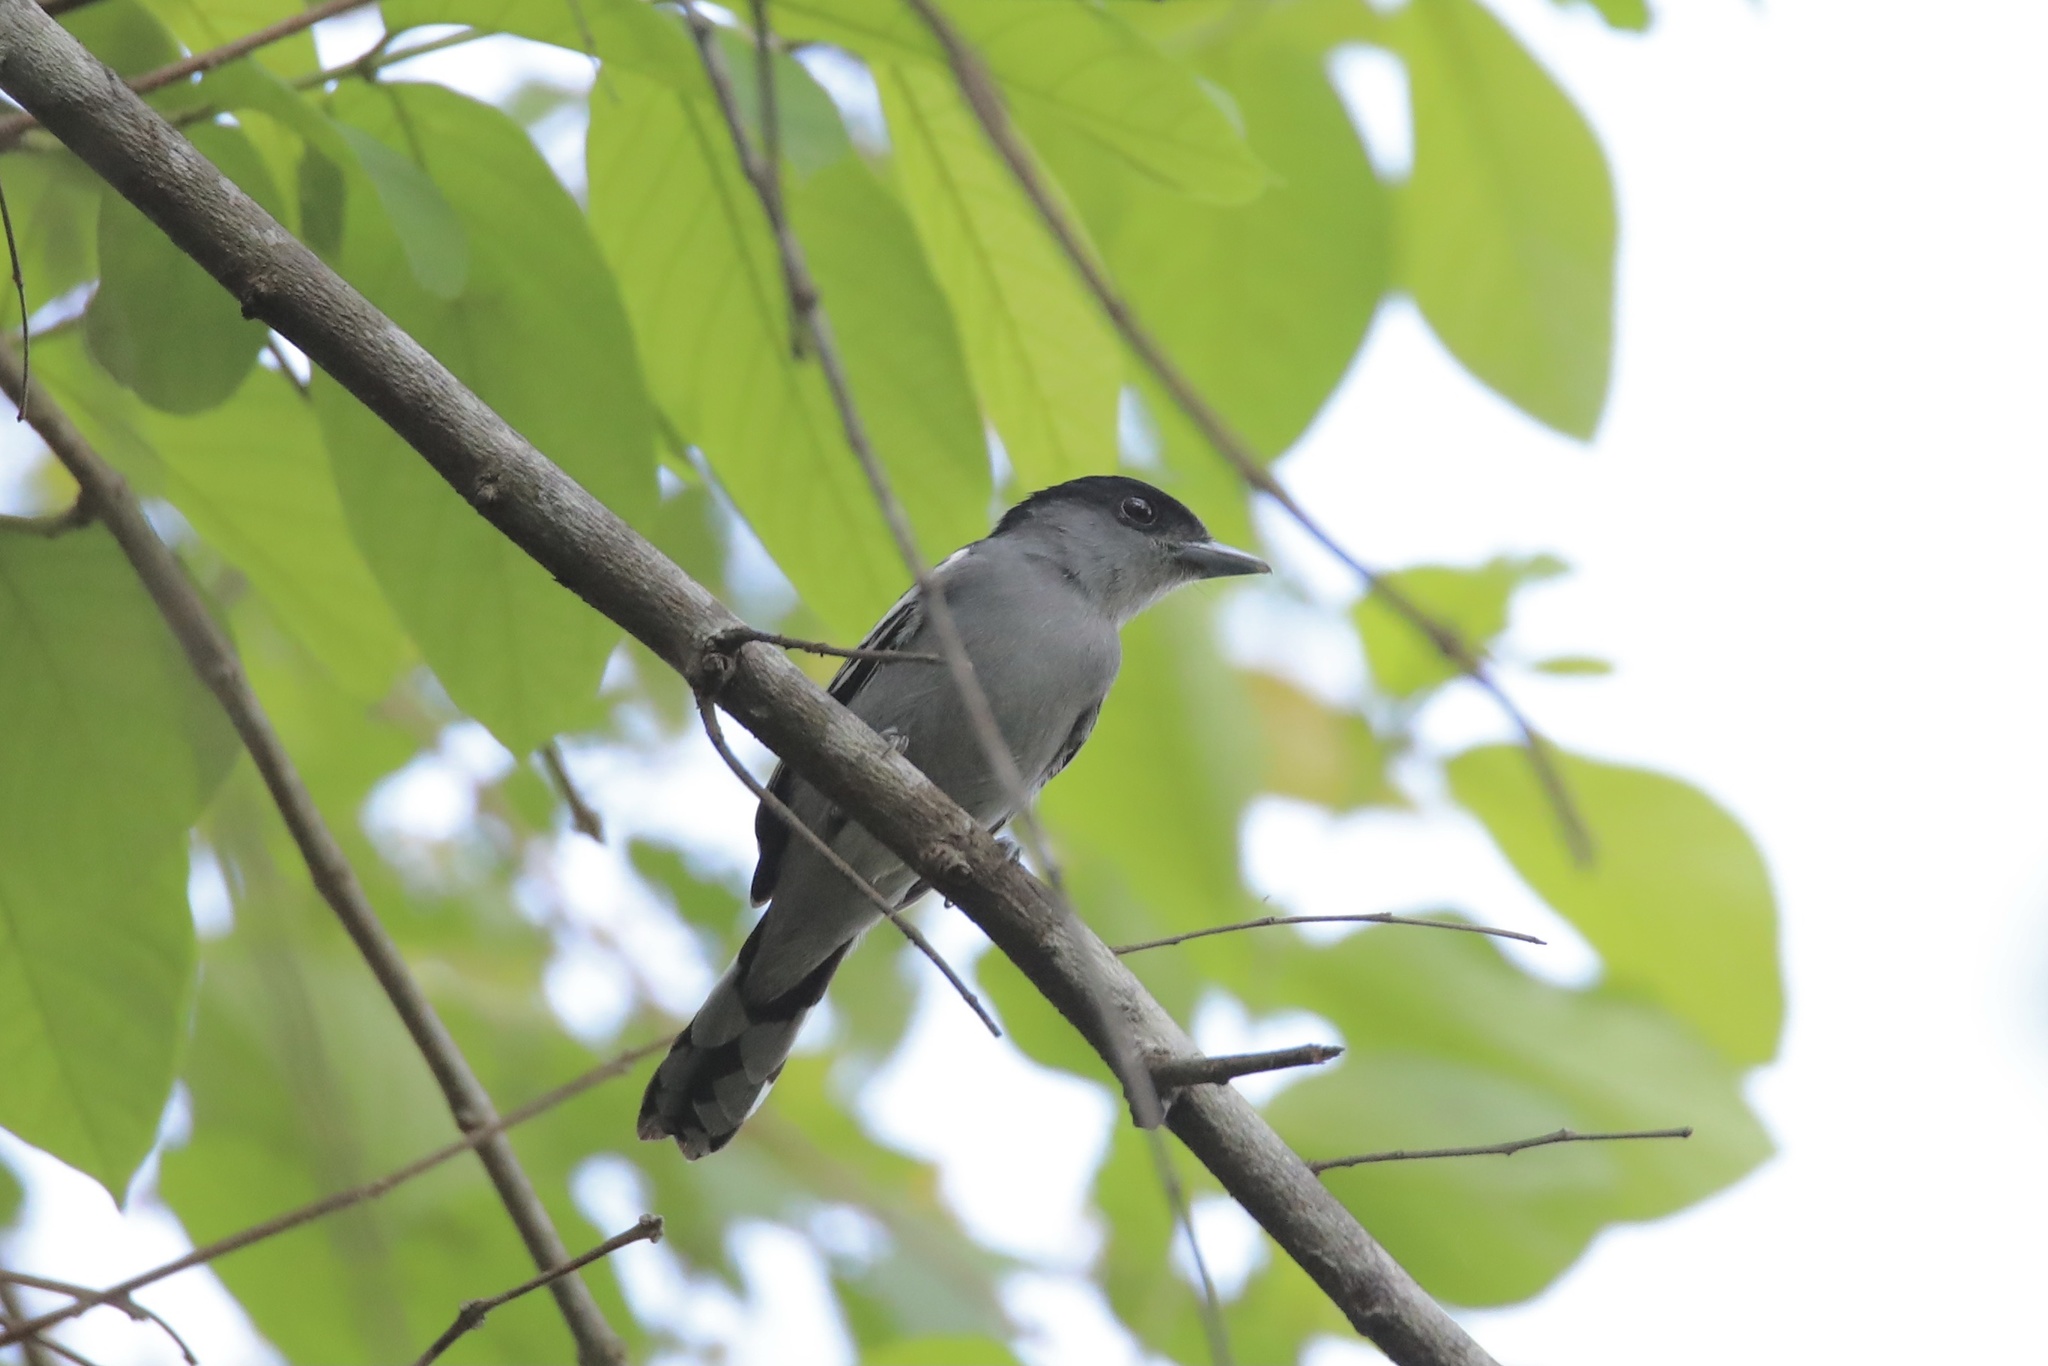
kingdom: Animalia
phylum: Chordata
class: Aves
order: Passeriformes
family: Cotingidae
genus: Pachyramphus
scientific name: Pachyramphus polychopterus
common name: White-winged becard
